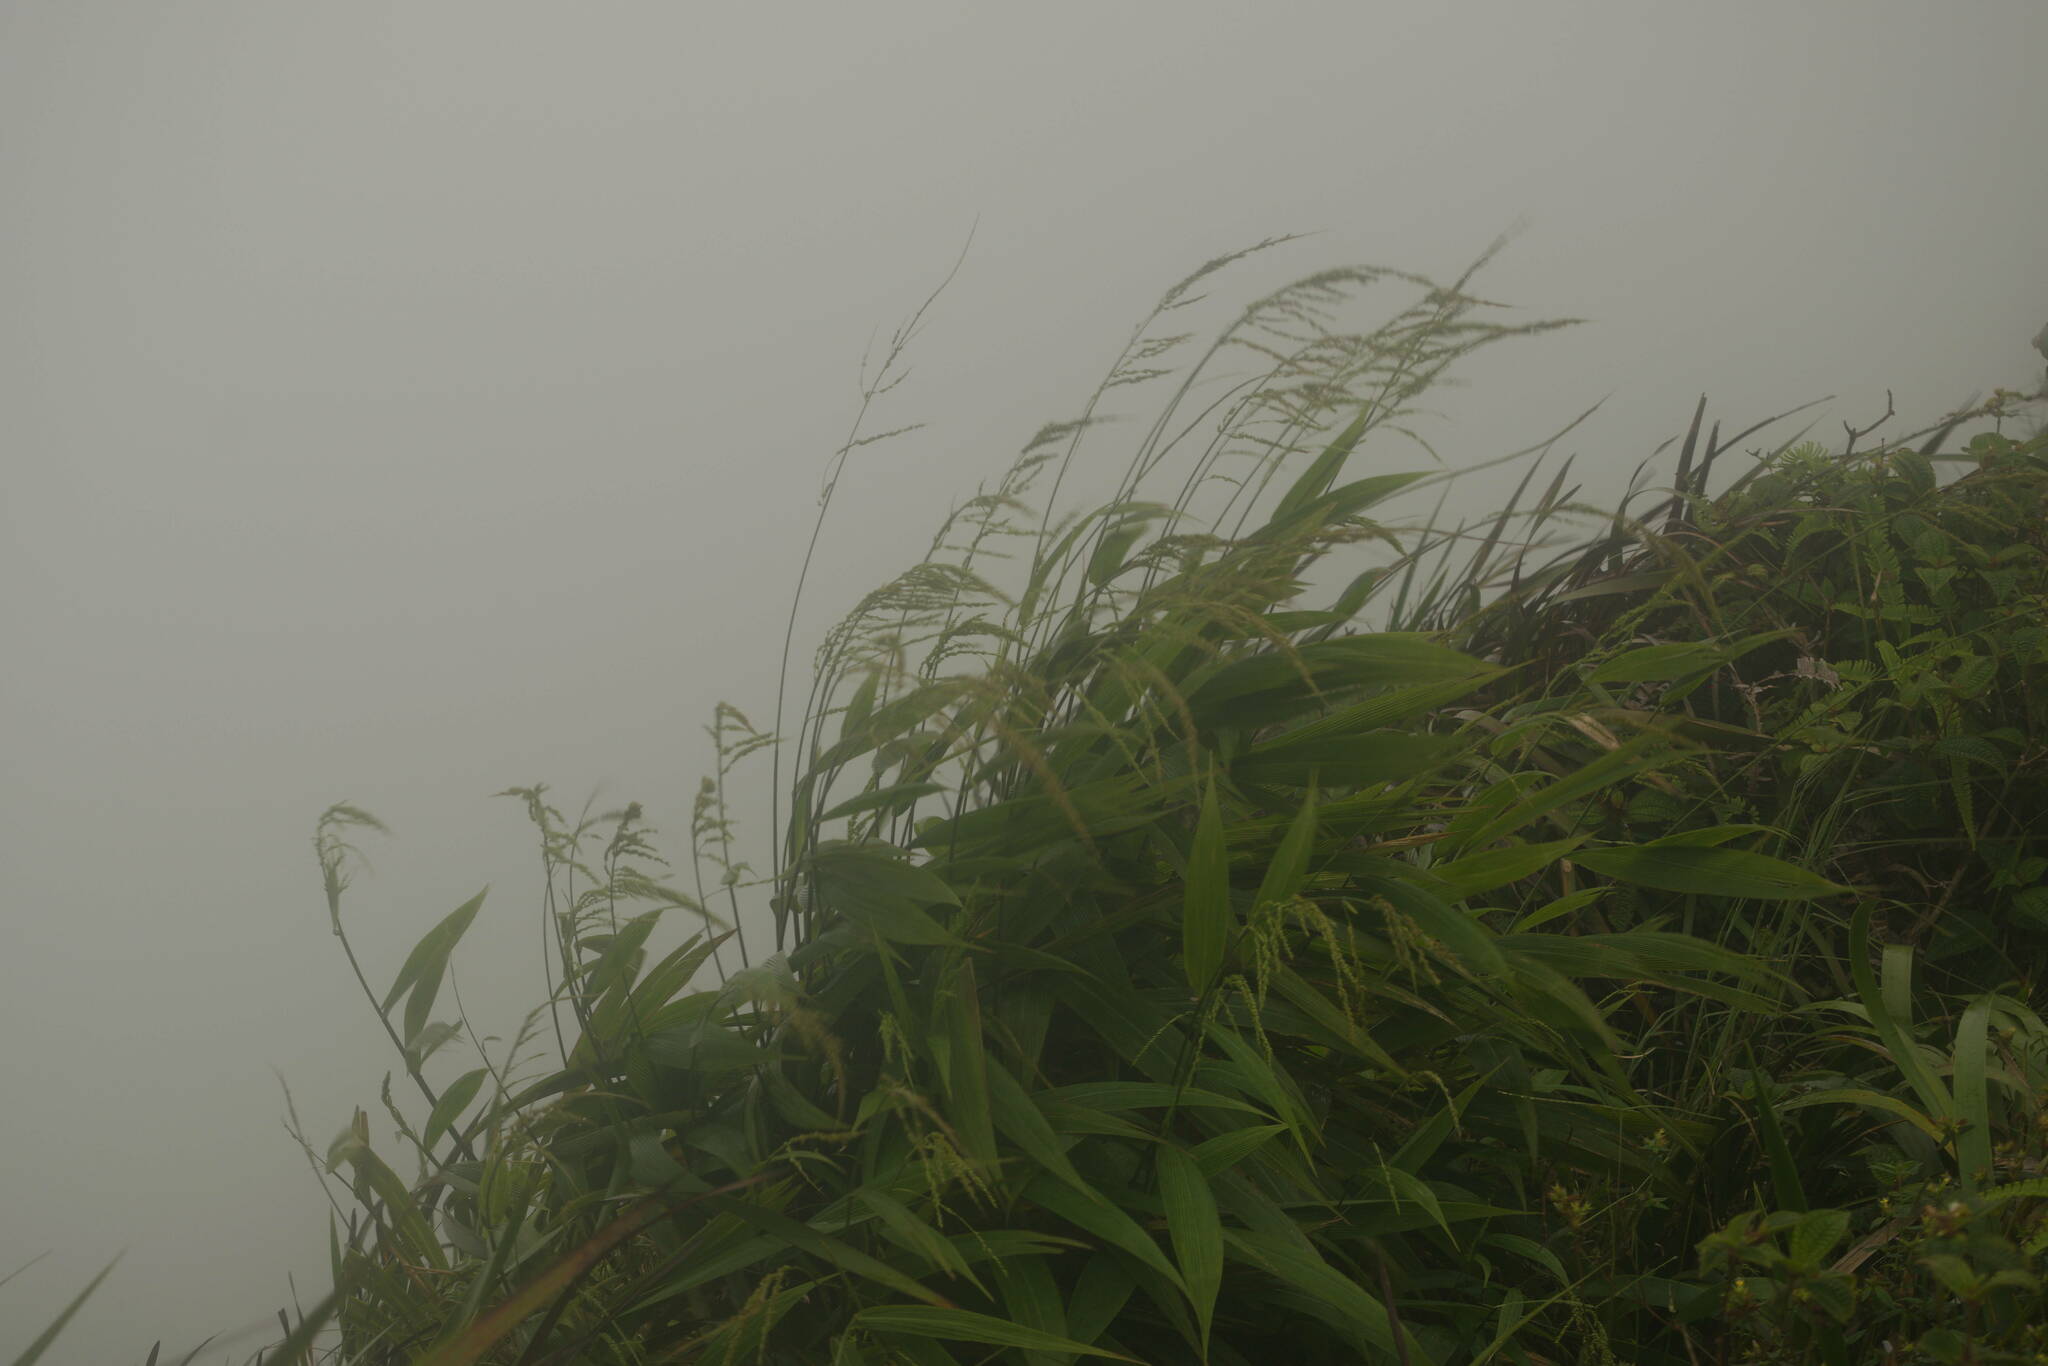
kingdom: Plantae
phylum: Tracheophyta
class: Liliopsida
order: Poales
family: Poaceae
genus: Setaria
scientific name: Setaria palmifolia
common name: Broadleaved bristlegrass
